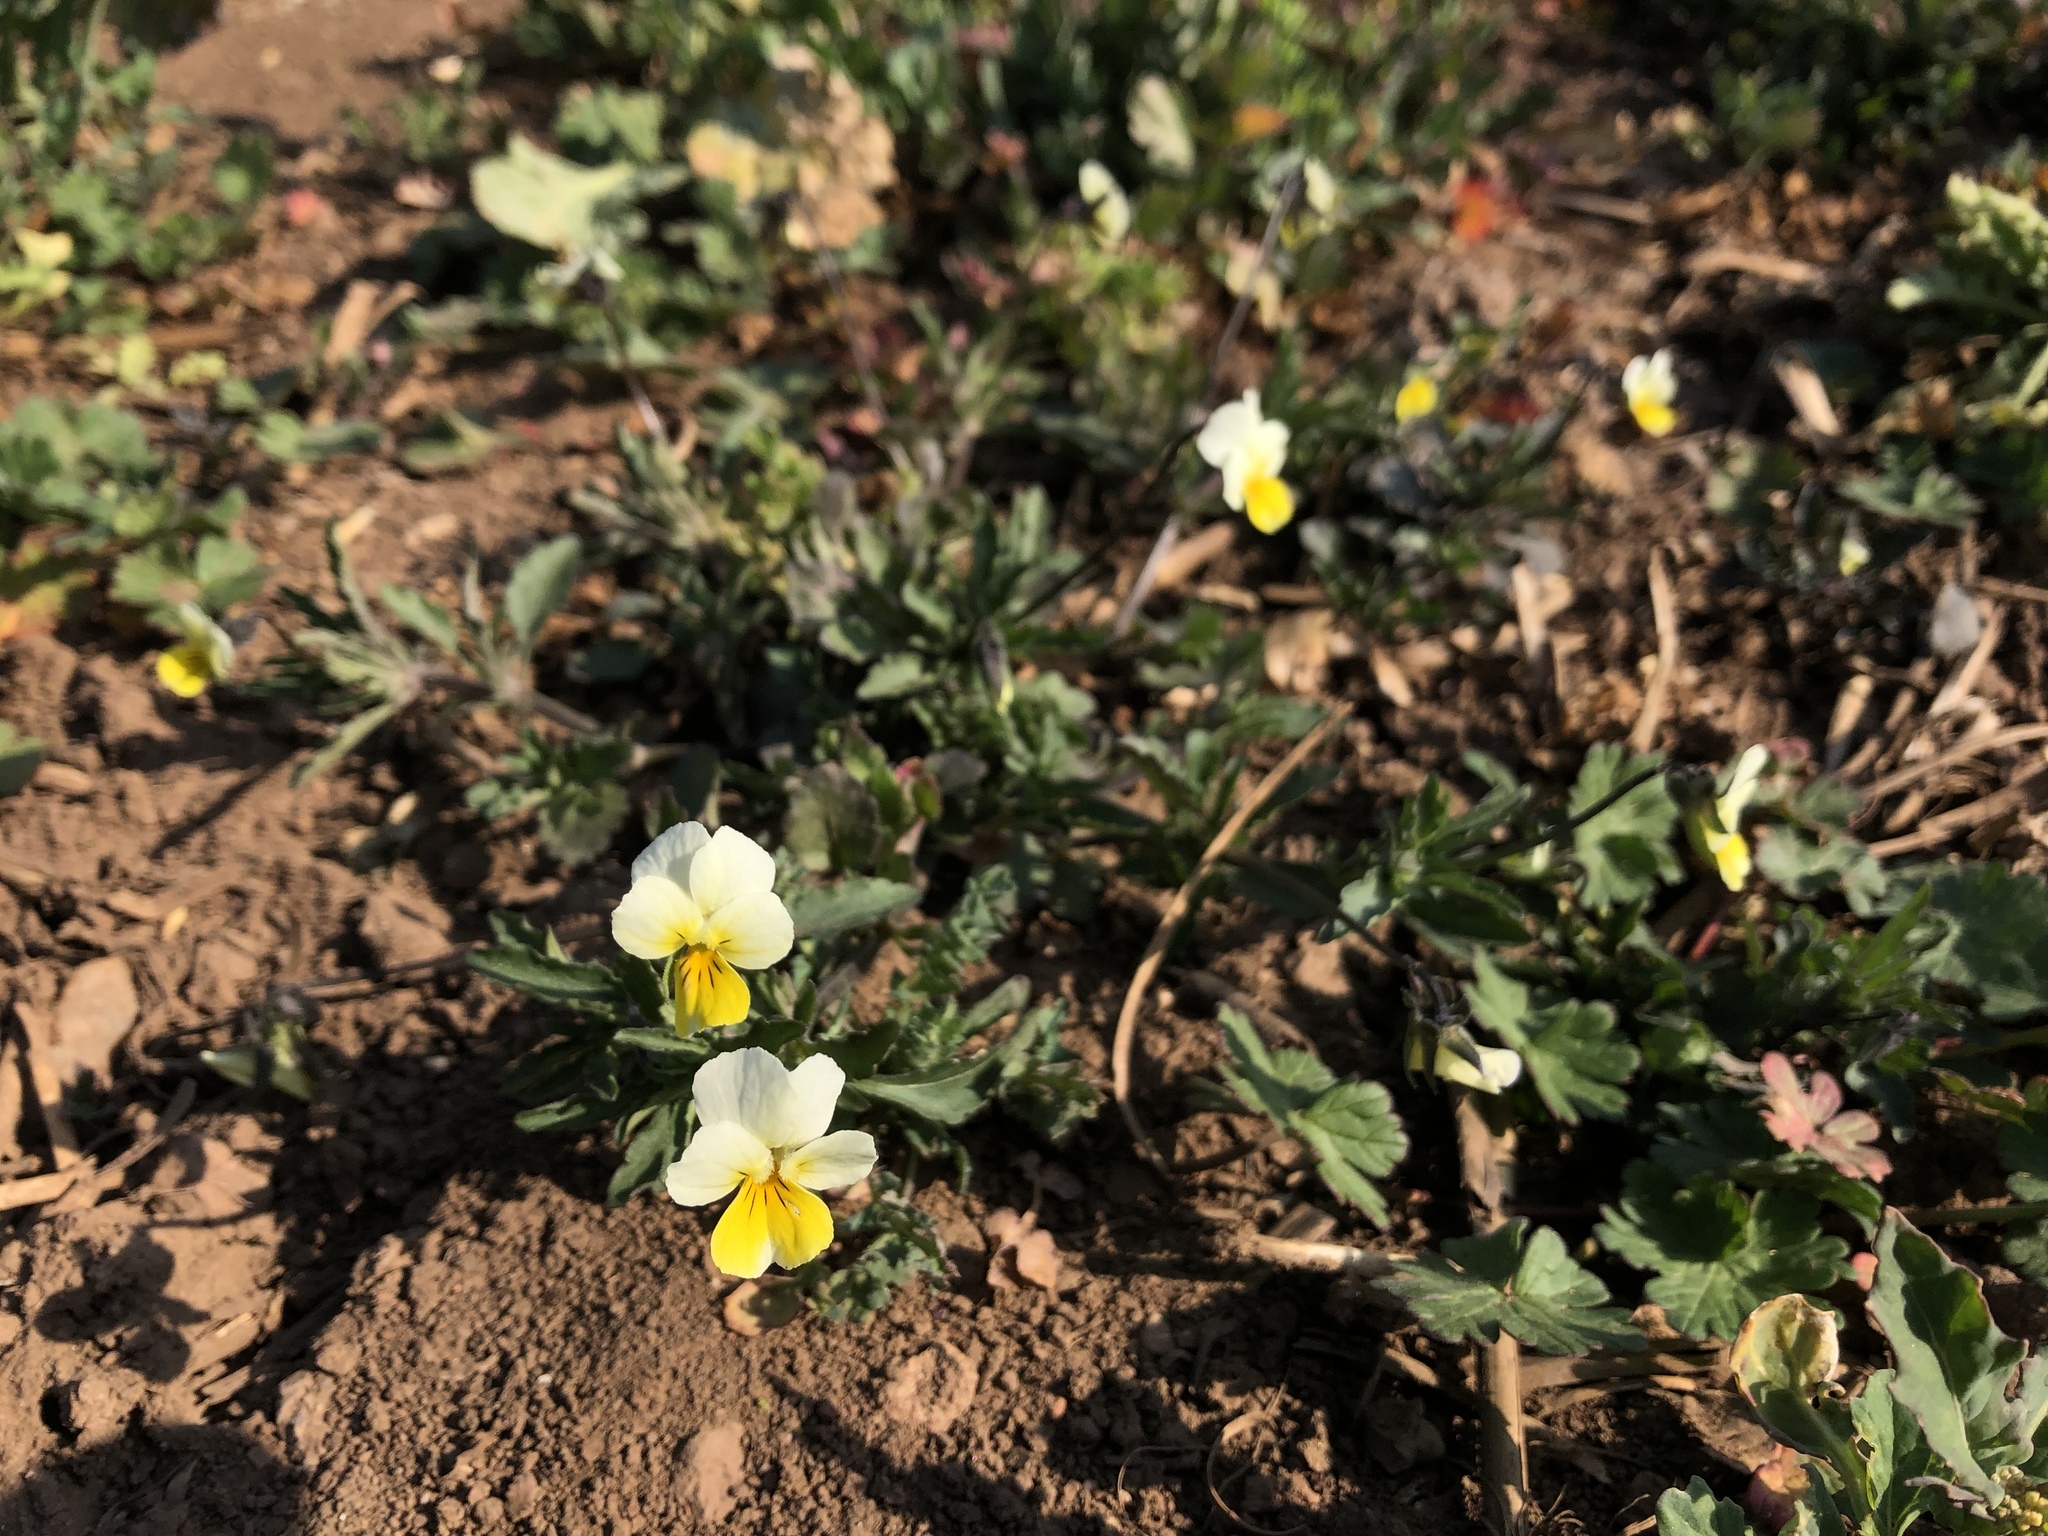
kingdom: Plantae
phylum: Tracheophyta
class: Magnoliopsida
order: Malpighiales
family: Violaceae
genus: Viola
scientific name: Viola arvensis
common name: Field pansy
